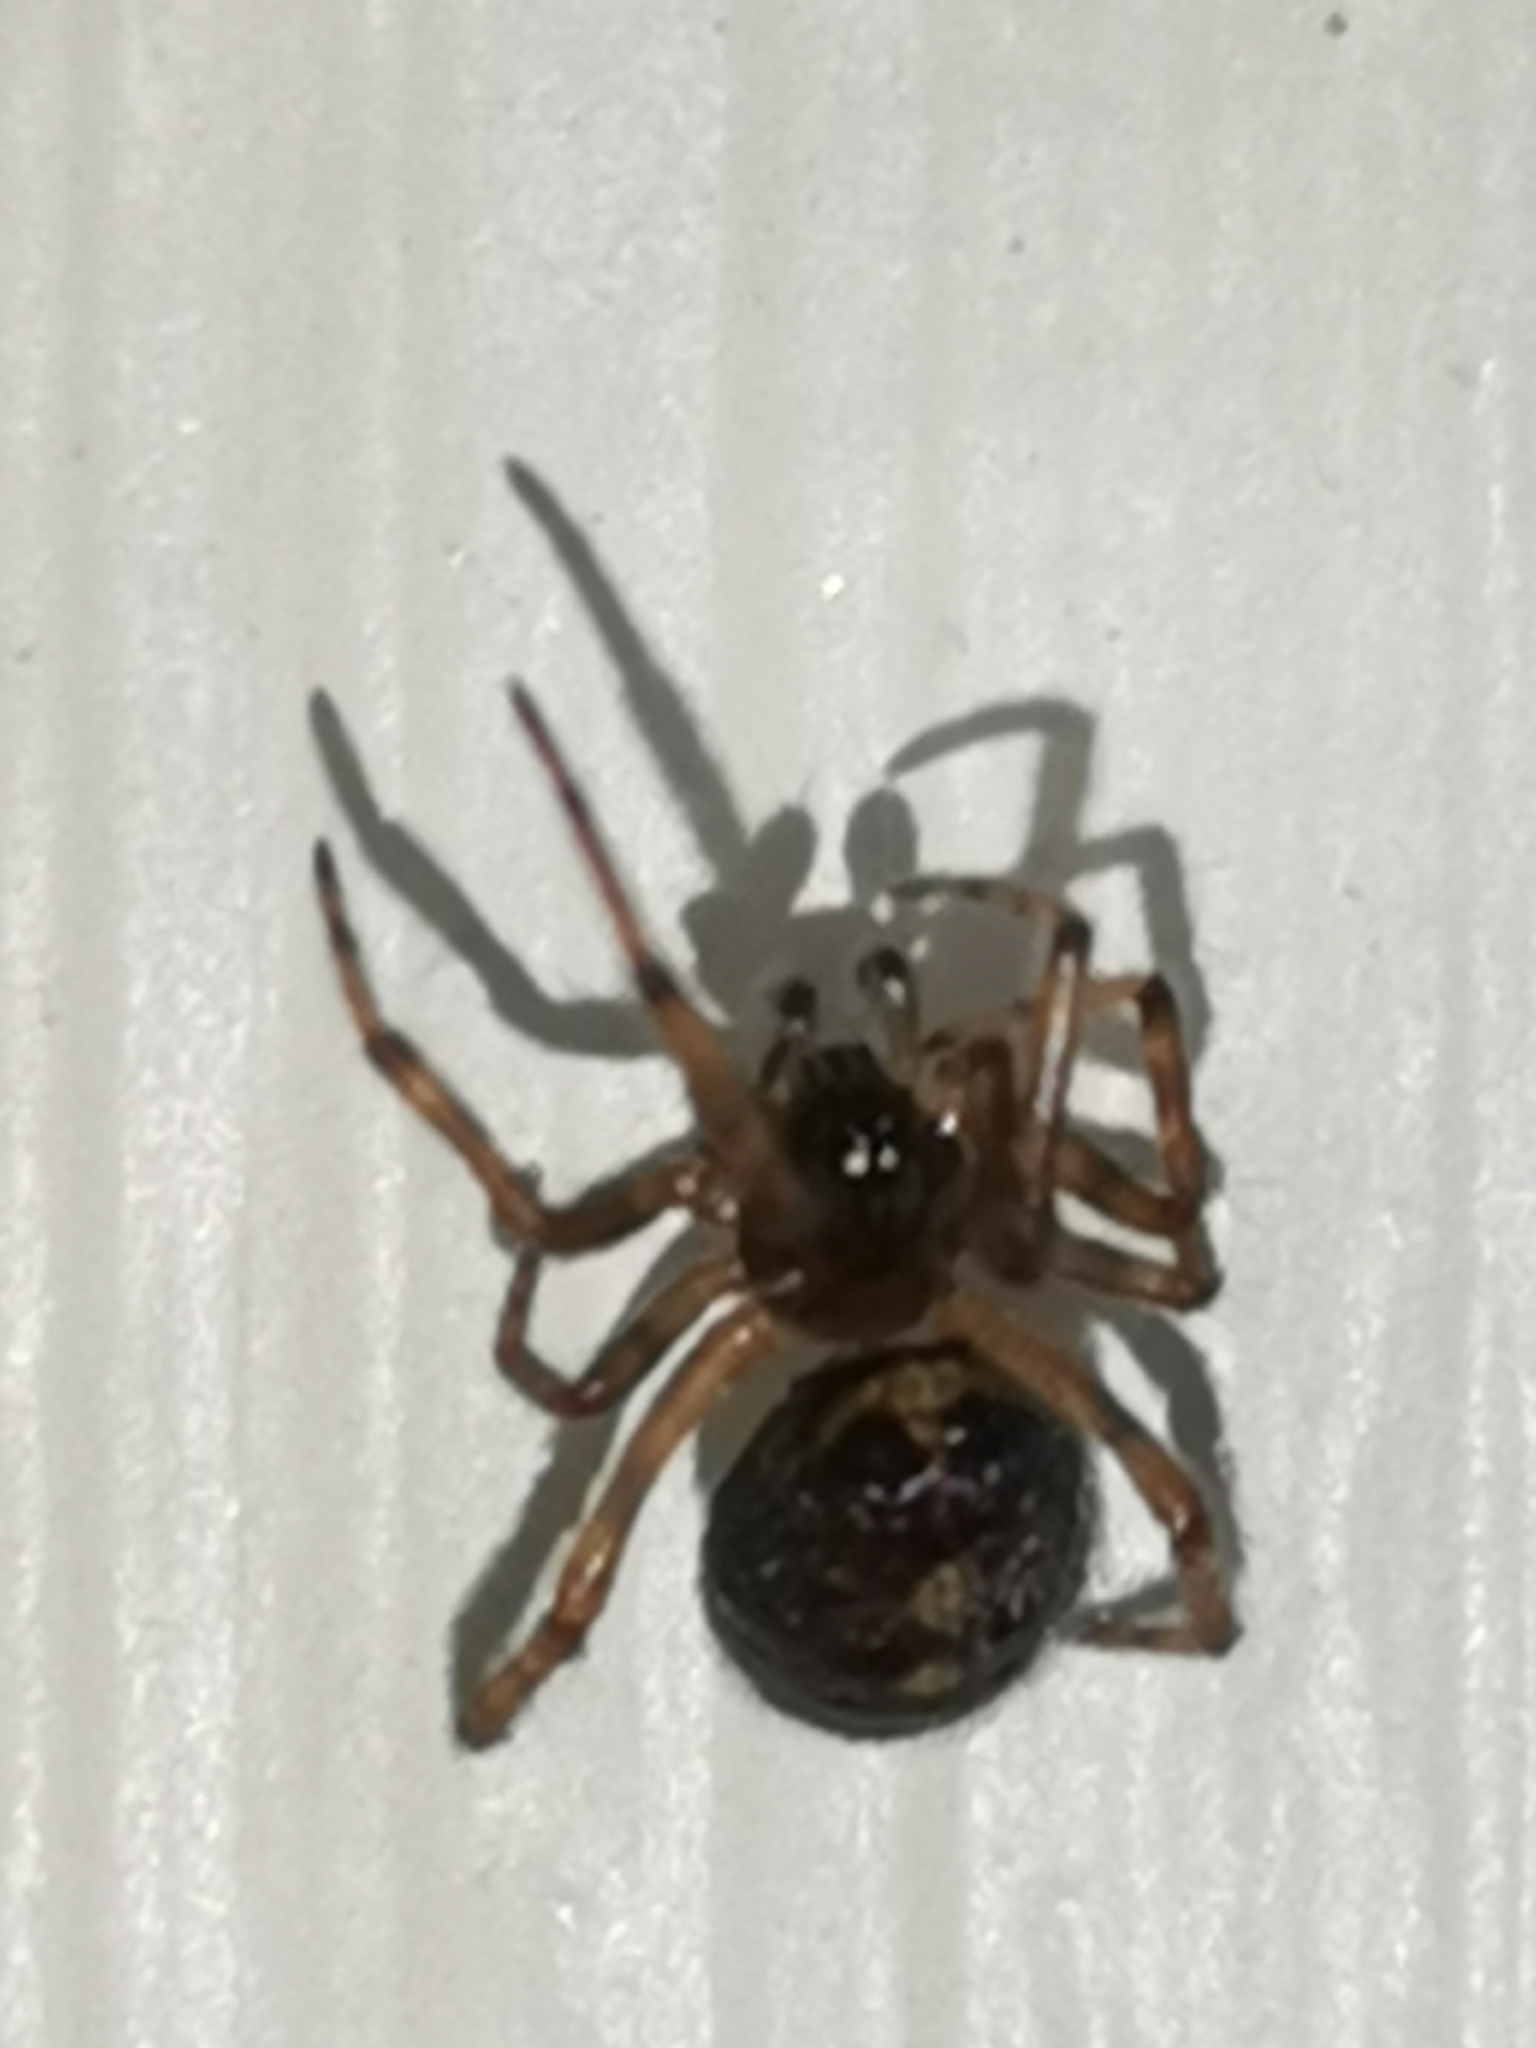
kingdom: Animalia
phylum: Arthropoda
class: Arachnida
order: Araneae
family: Theridiidae
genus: Steatoda
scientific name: Steatoda bipunctata
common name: False widow
